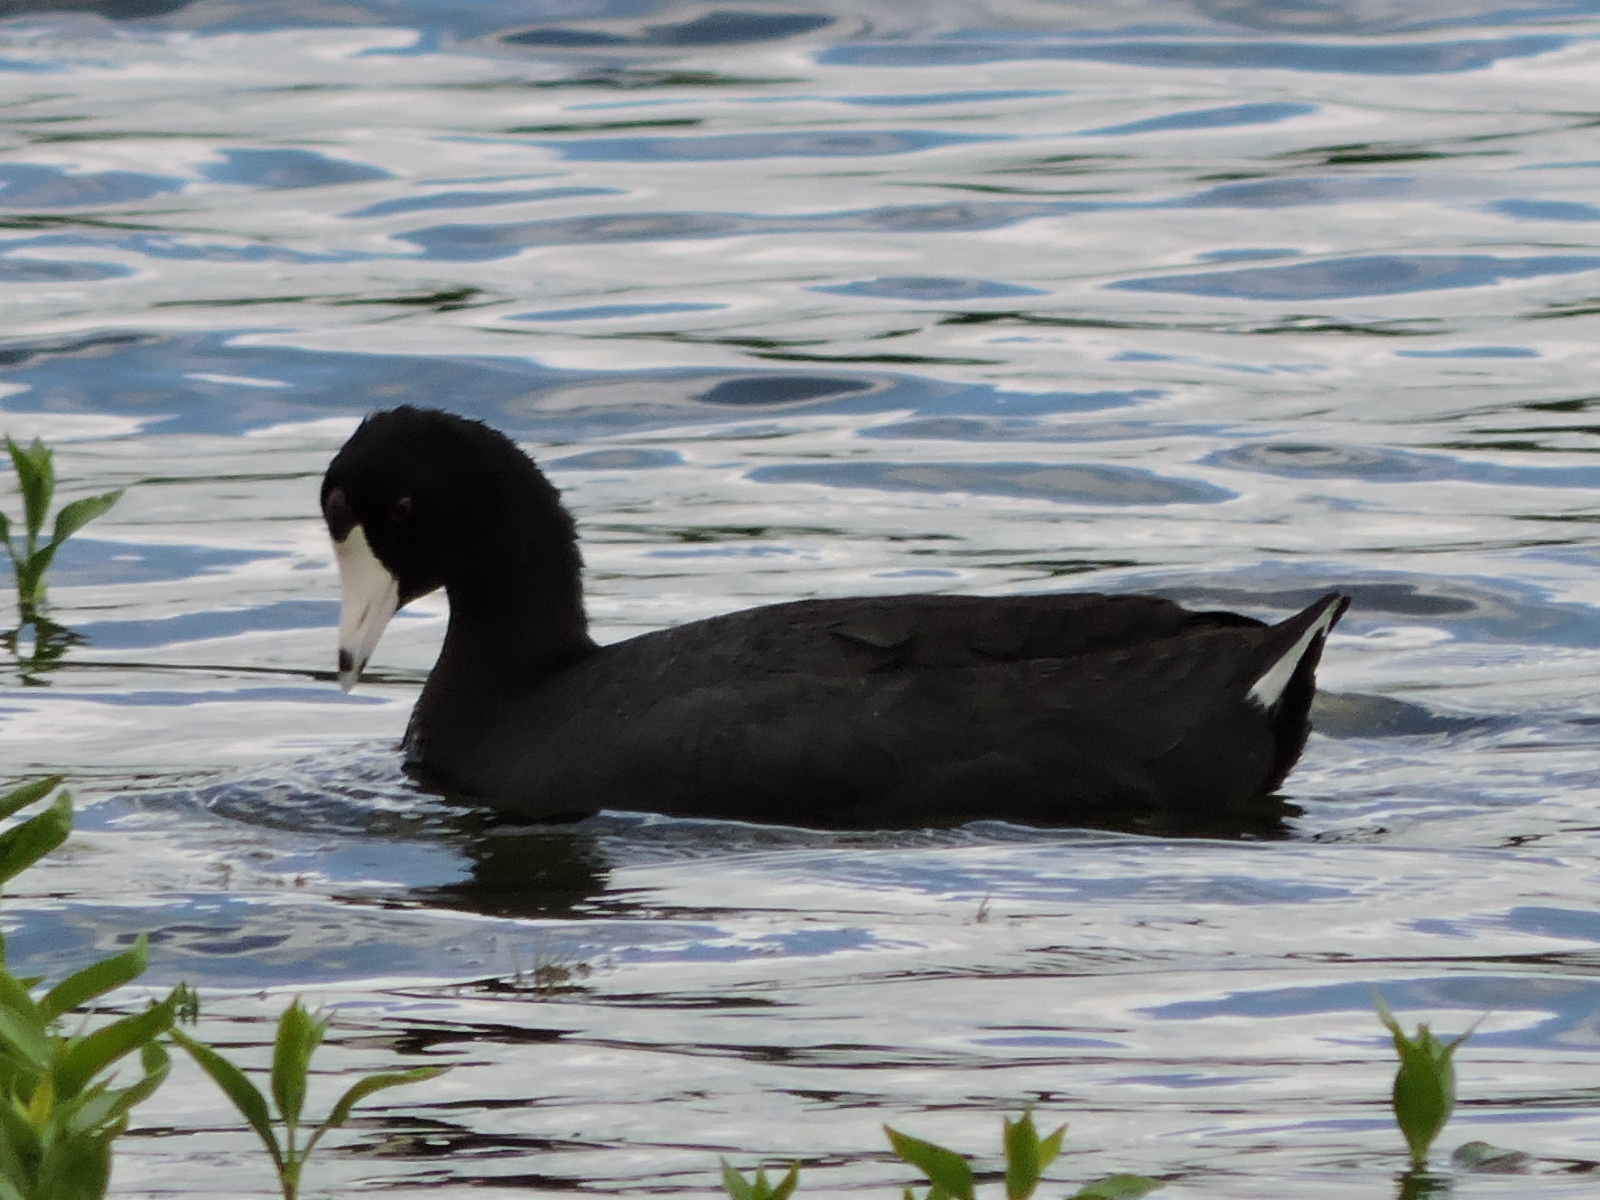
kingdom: Animalia
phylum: Chordata
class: Aves
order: Gruiformes
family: Rallidae
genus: Fulica
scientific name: Fulica americana
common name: American coot
